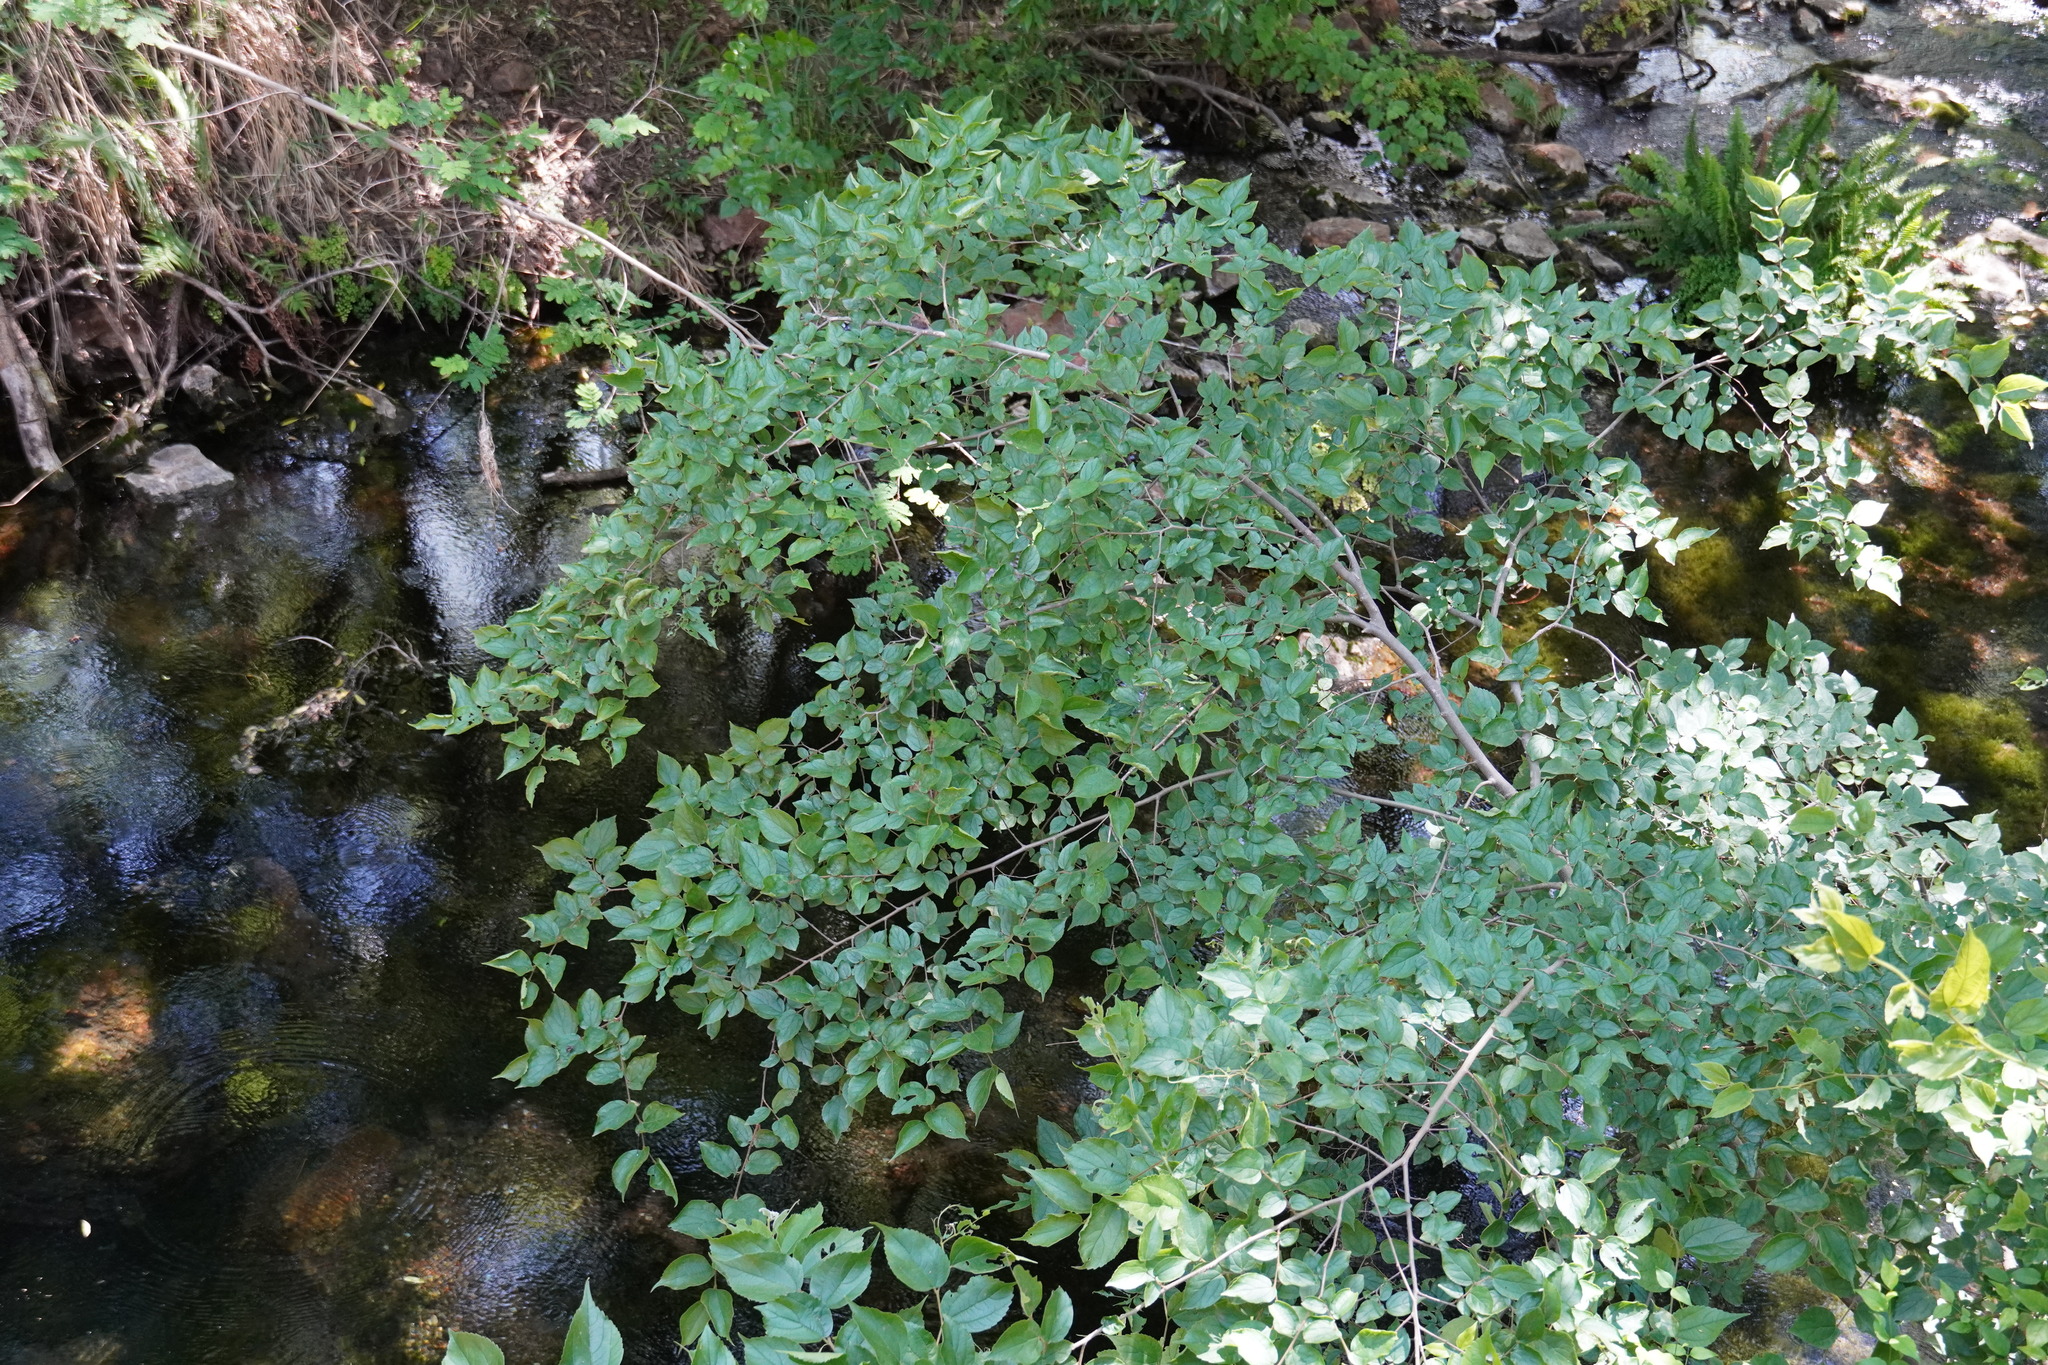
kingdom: Plantae
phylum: Tracheophyta
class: Magnoliopsida
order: Rosales
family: Cannabaceae
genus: Celtis
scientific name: Celtis africana
